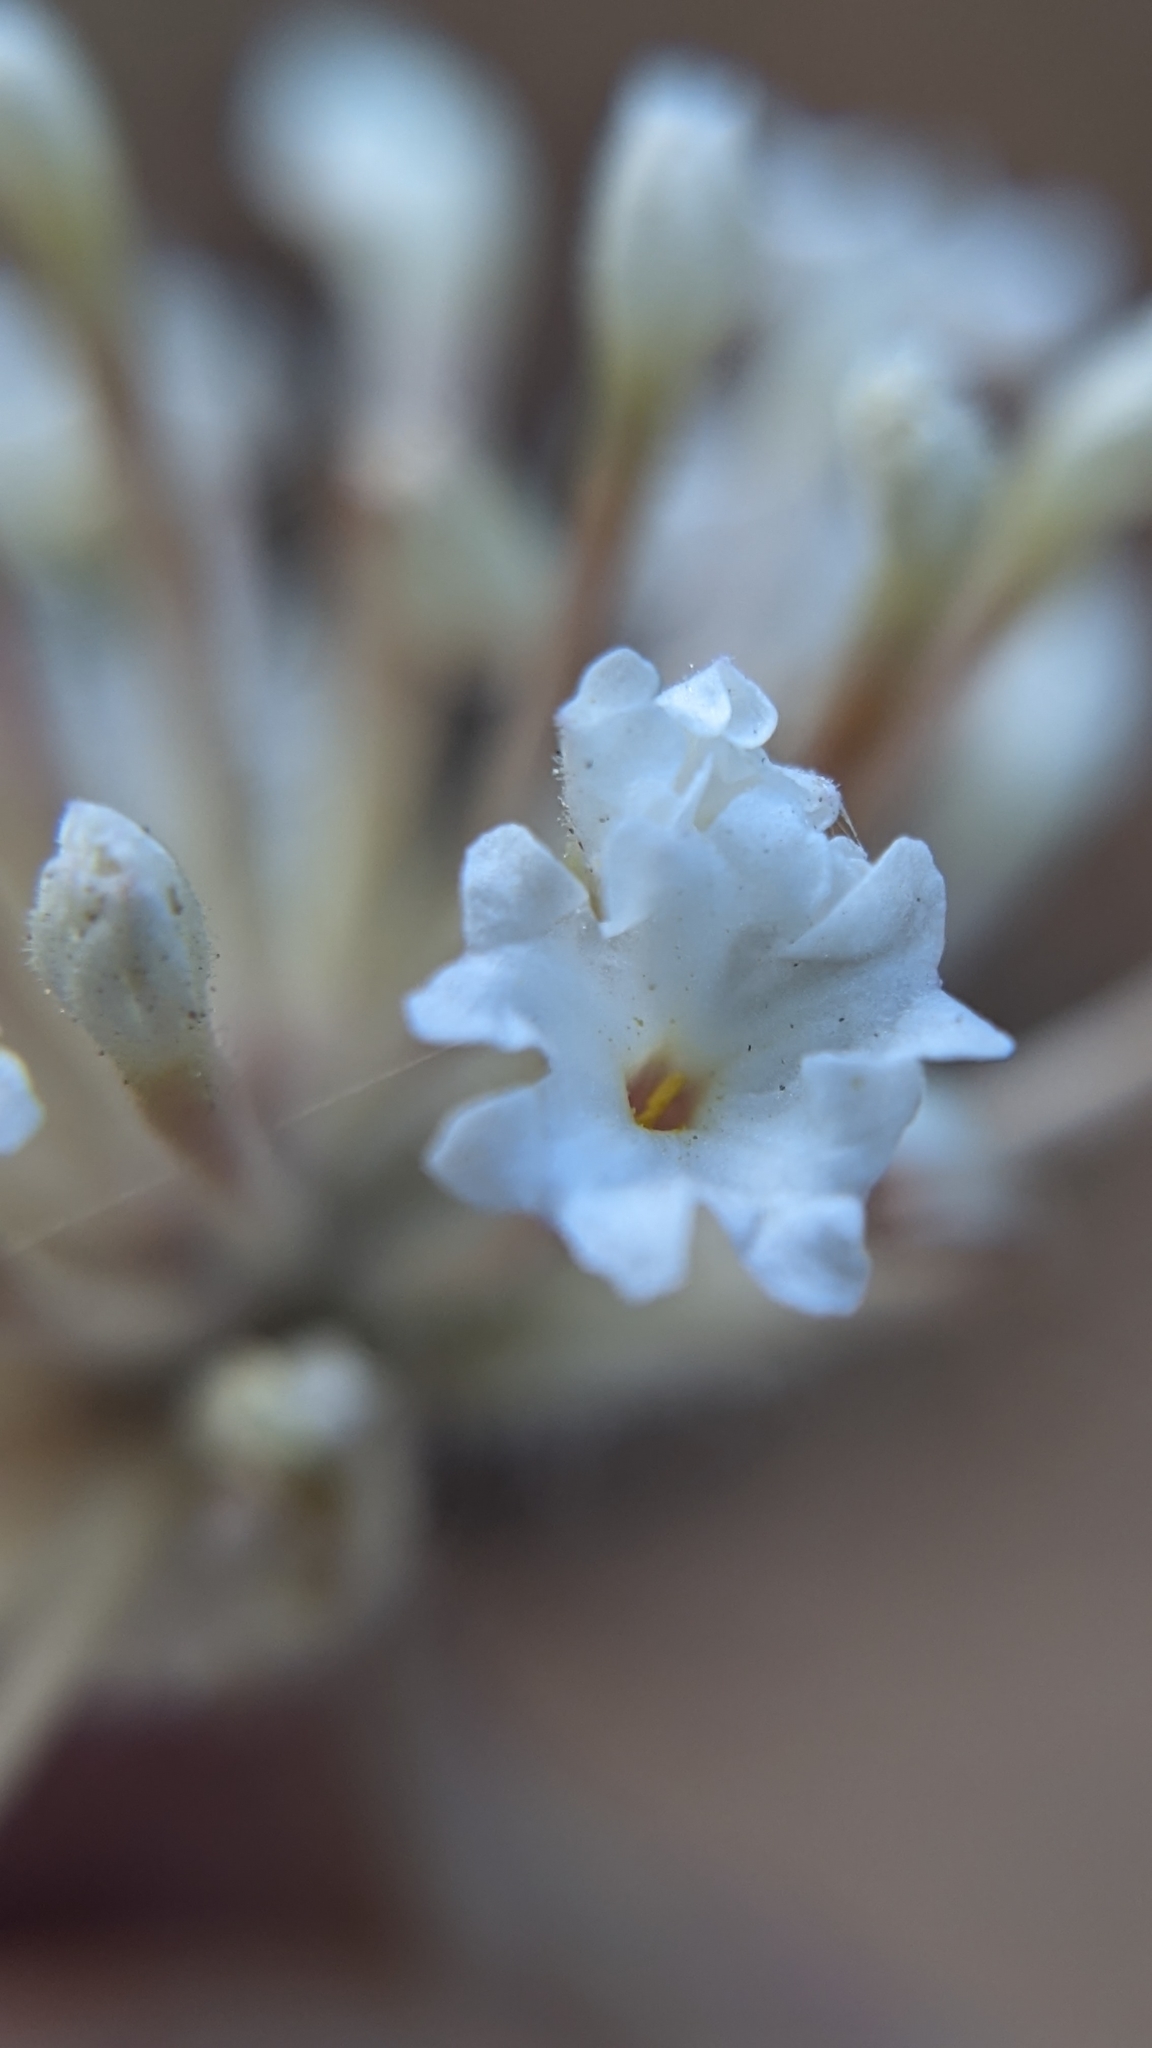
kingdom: Plantae
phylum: Tracheophyta
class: Magnoliopsida
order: Caryophyllales
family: Nyctaginaceae
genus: Abronia
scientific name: Abronia elliptica
